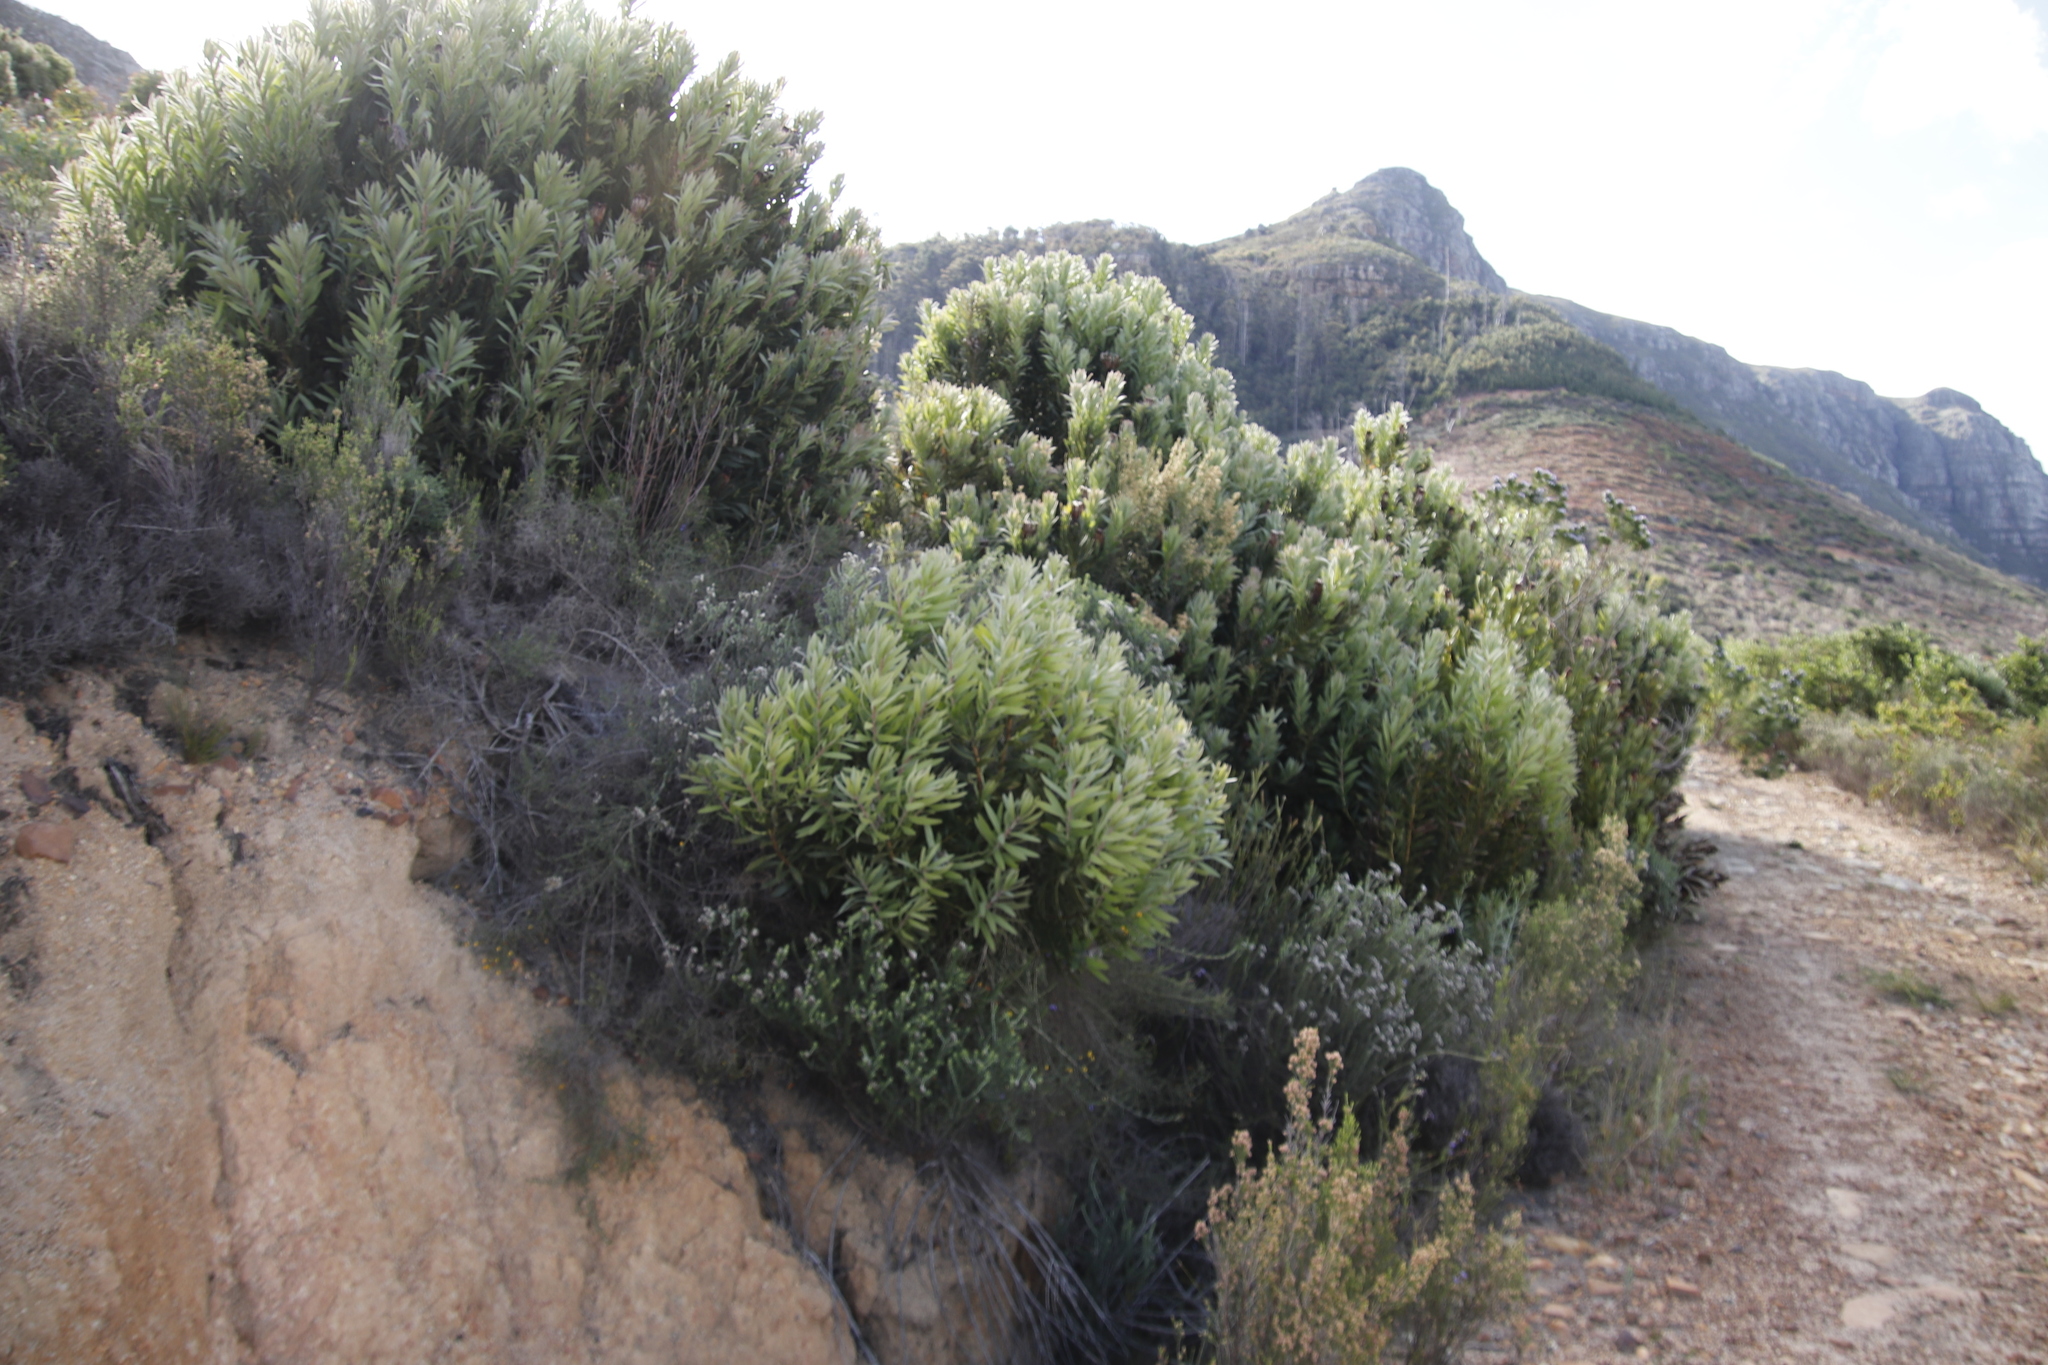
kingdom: Plantae
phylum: Tracheophyta
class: Magnoliopsida
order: Proteales
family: Proteaceae
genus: Protea
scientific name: Protea lepidocarpodendron
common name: Black-bearded protea
